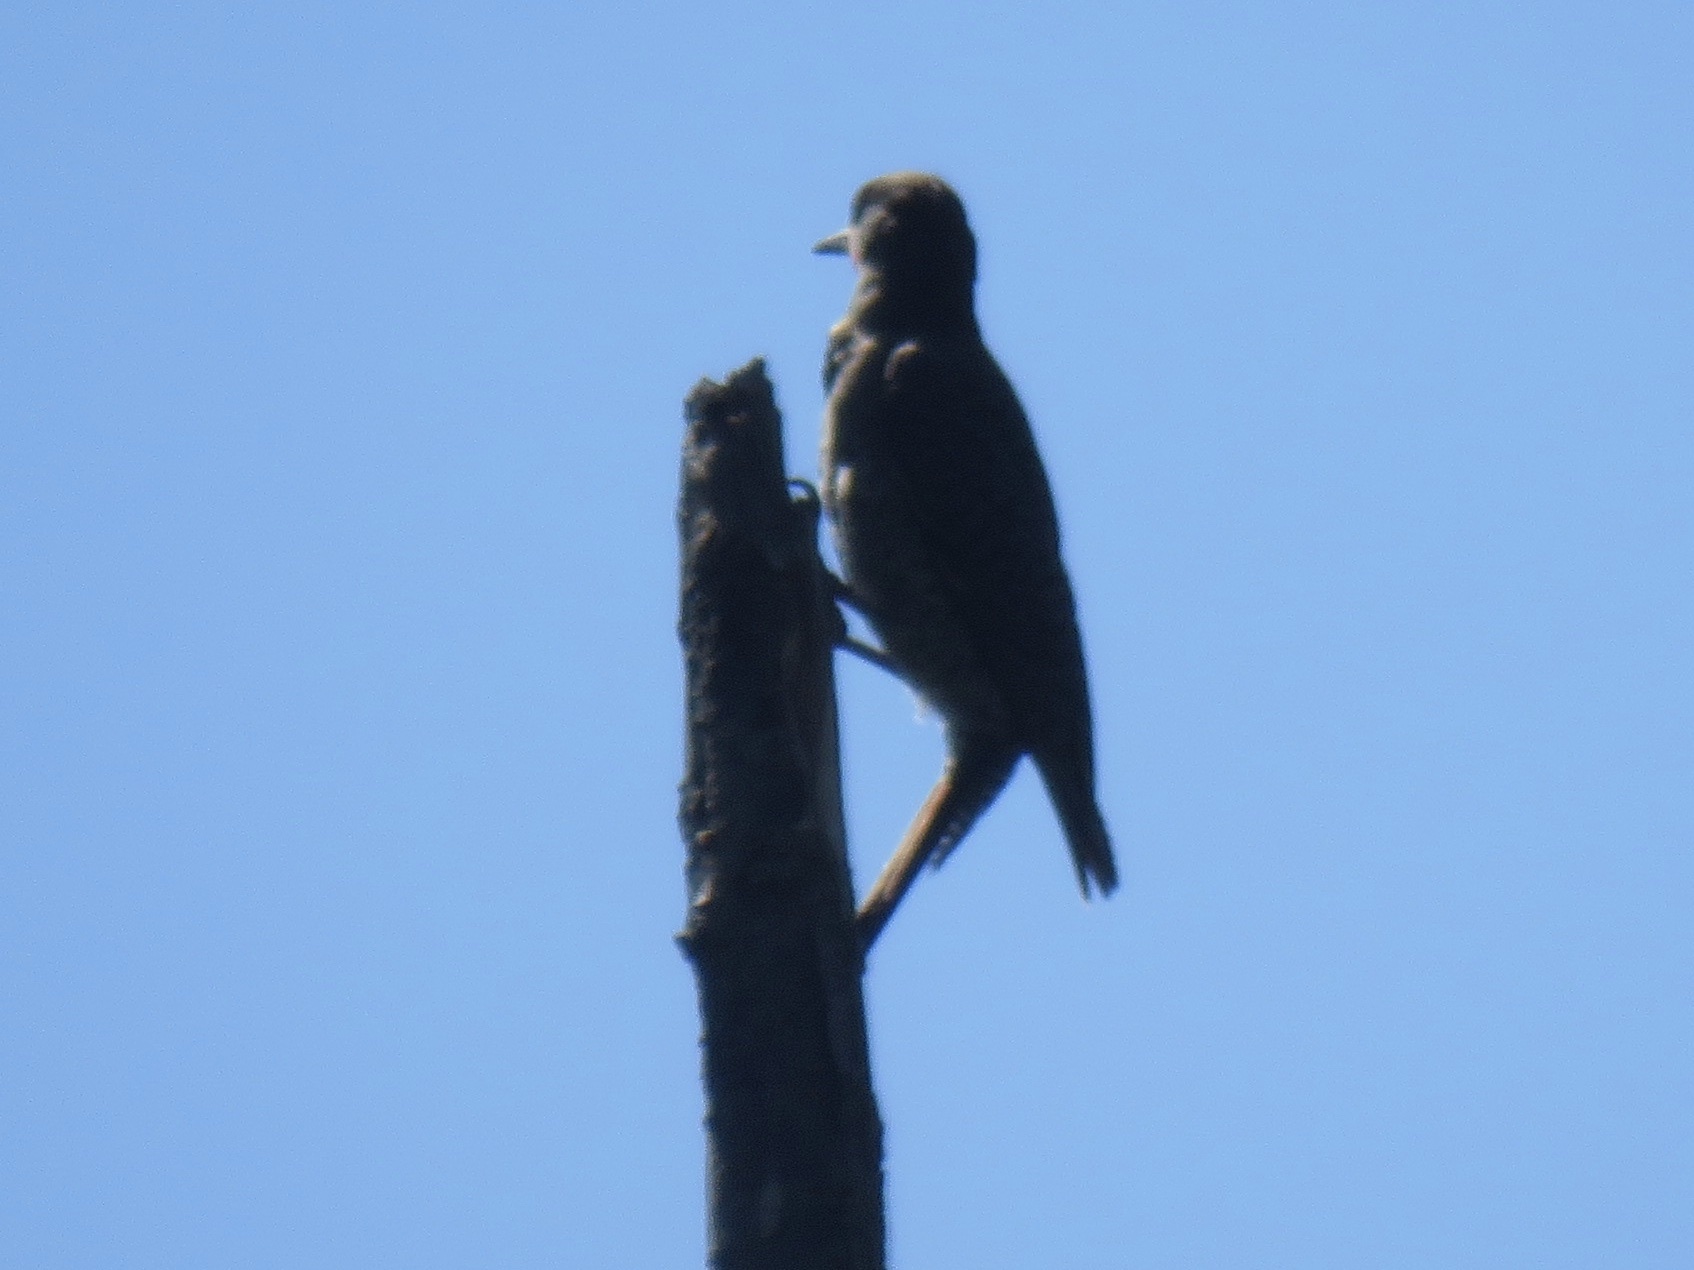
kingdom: Animalia
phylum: Chordata
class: Aves
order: Piciformes
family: Picidae
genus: Colaptes
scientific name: Colaptes auratus
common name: Northern flicker
